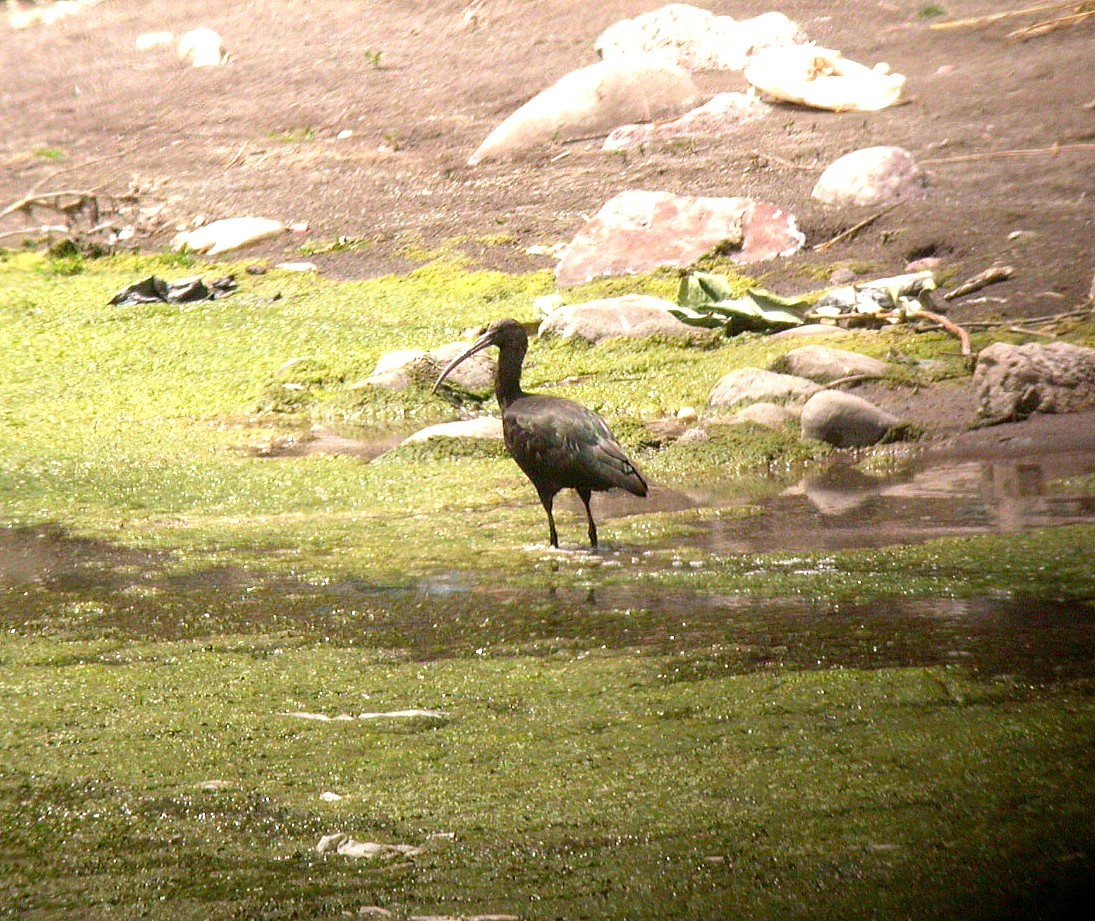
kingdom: Animalia
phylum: Chordata
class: Aves
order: Pelecaniformes
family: Threskiornithidae
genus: Plegadis
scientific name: Plegadis ridgwayi
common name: Puna ibis
